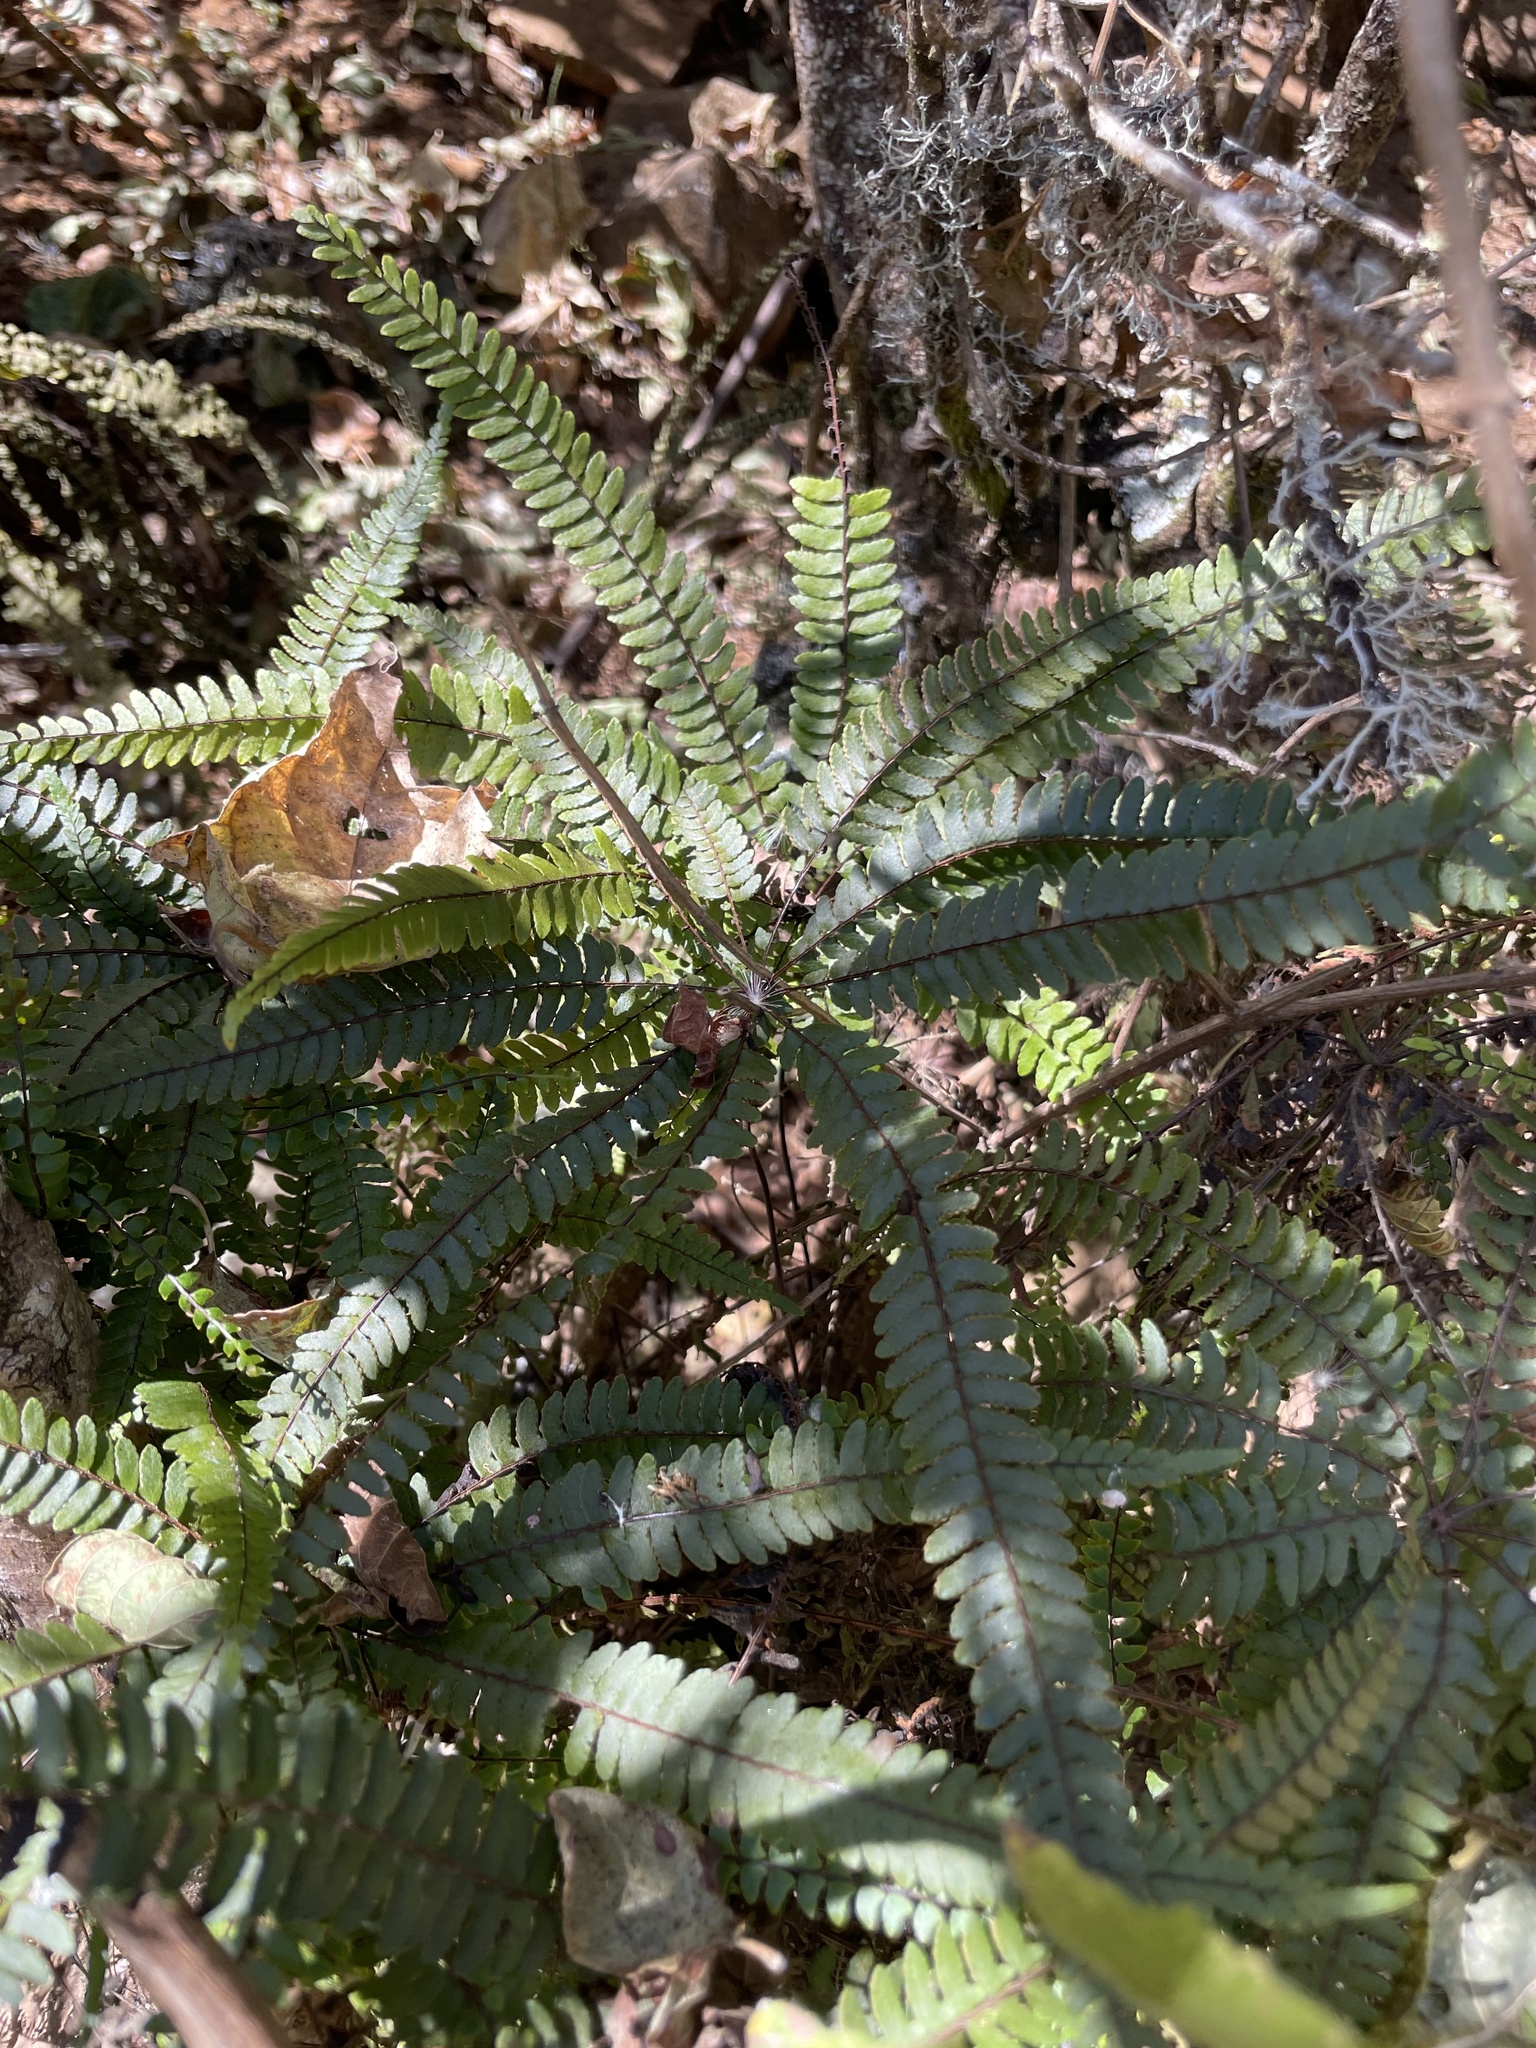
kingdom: Plantae
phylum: Tracheophyta
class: Polypodiopsida
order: Polypodiales
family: Pteridaceae
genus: Adiantopsis
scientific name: Adiantopsis radiata
